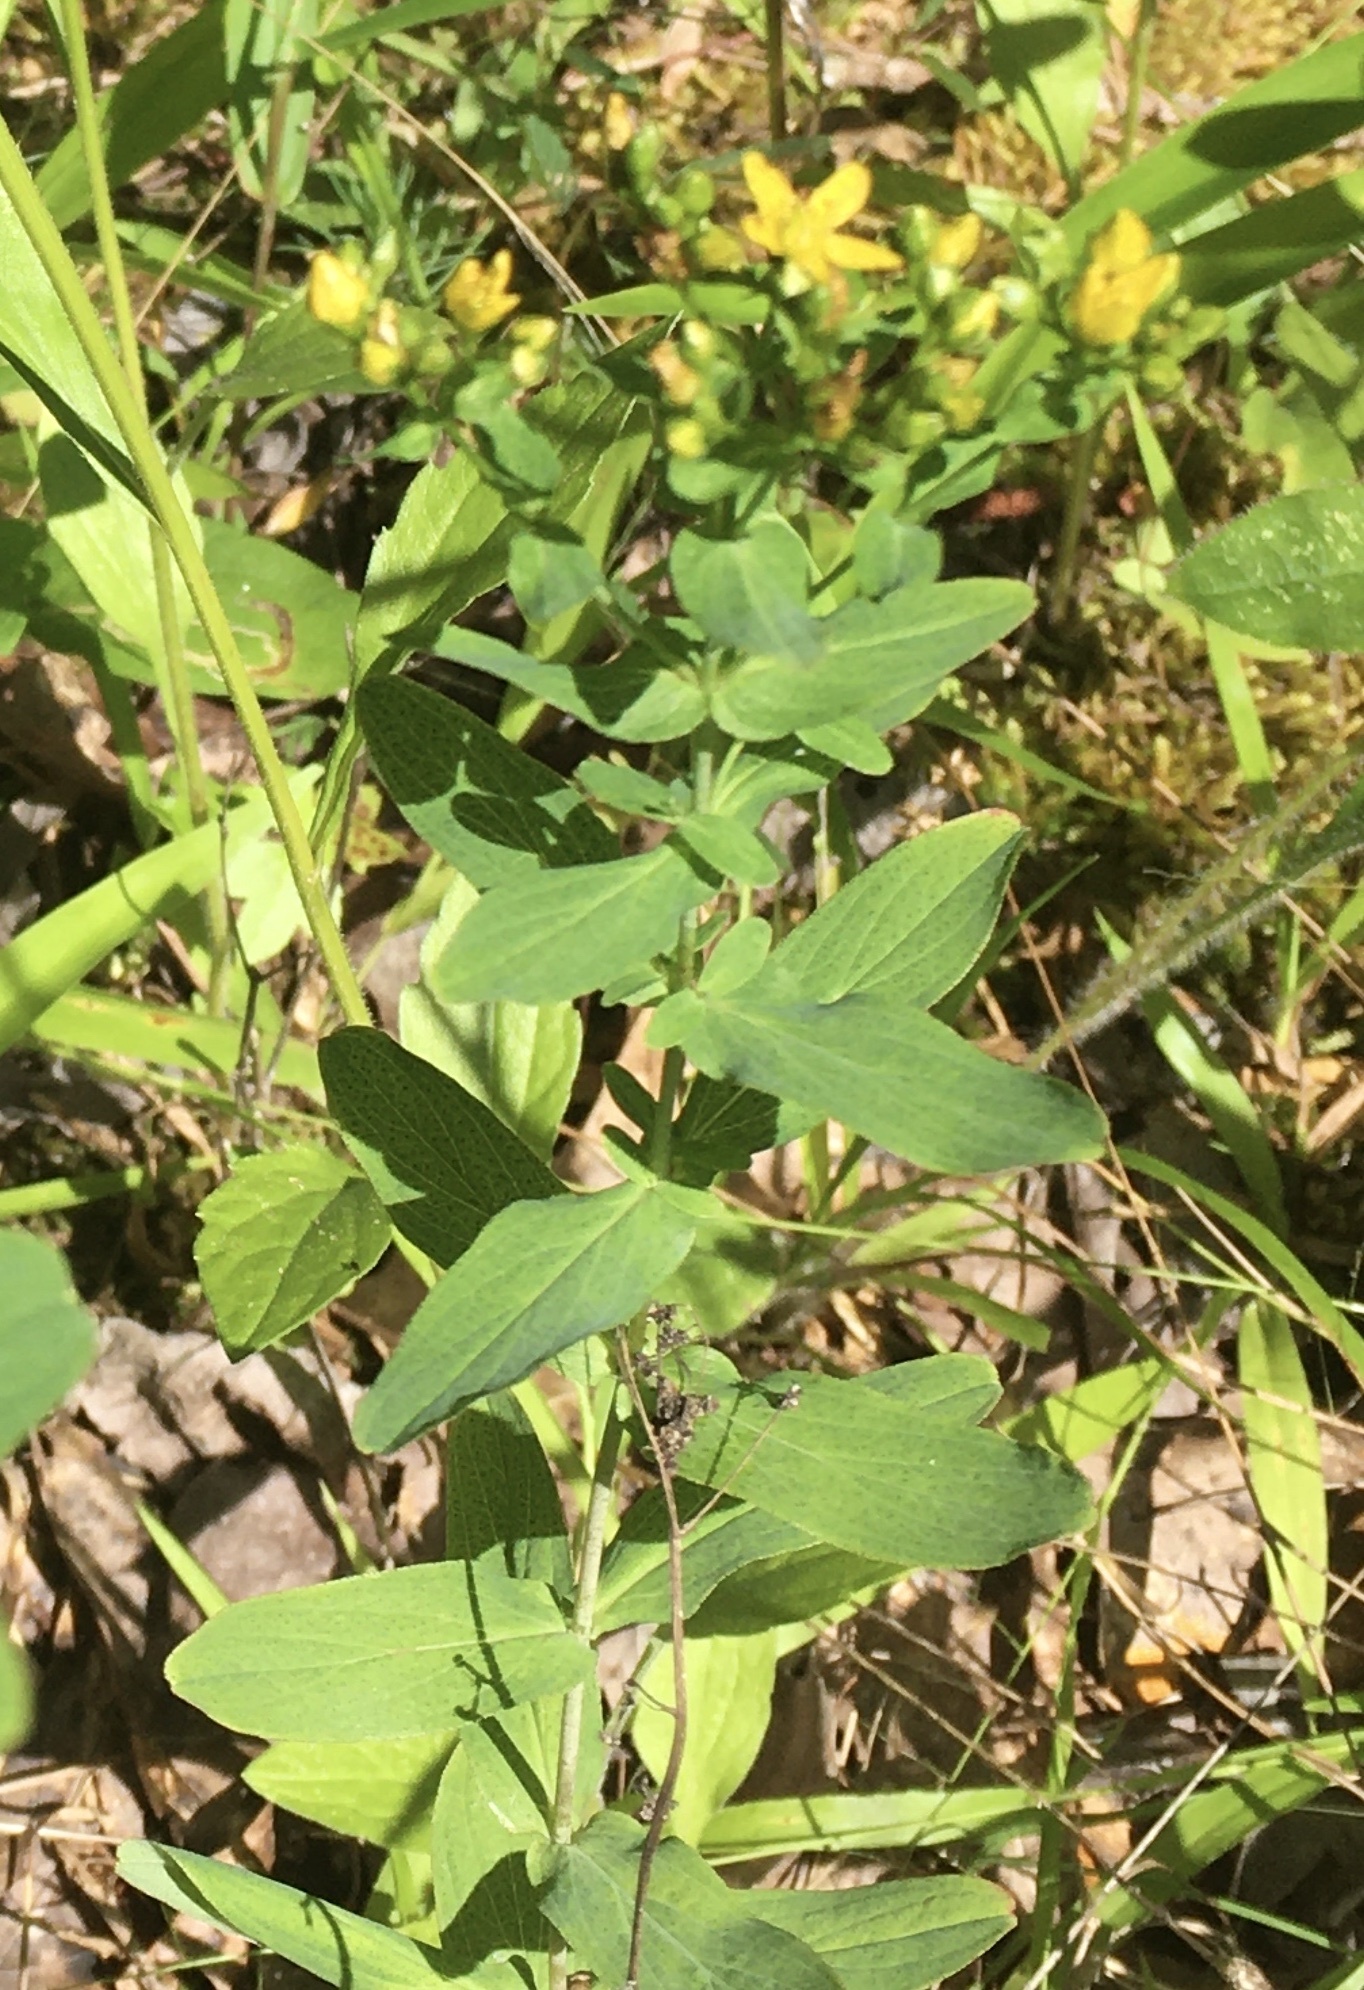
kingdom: Plantae
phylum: Tracheophyta
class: Magnoliopsida
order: Malpighiales
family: Hypericaceae
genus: Hypericum
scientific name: Hypericum punctatum
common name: Spotted st. john's-wort
